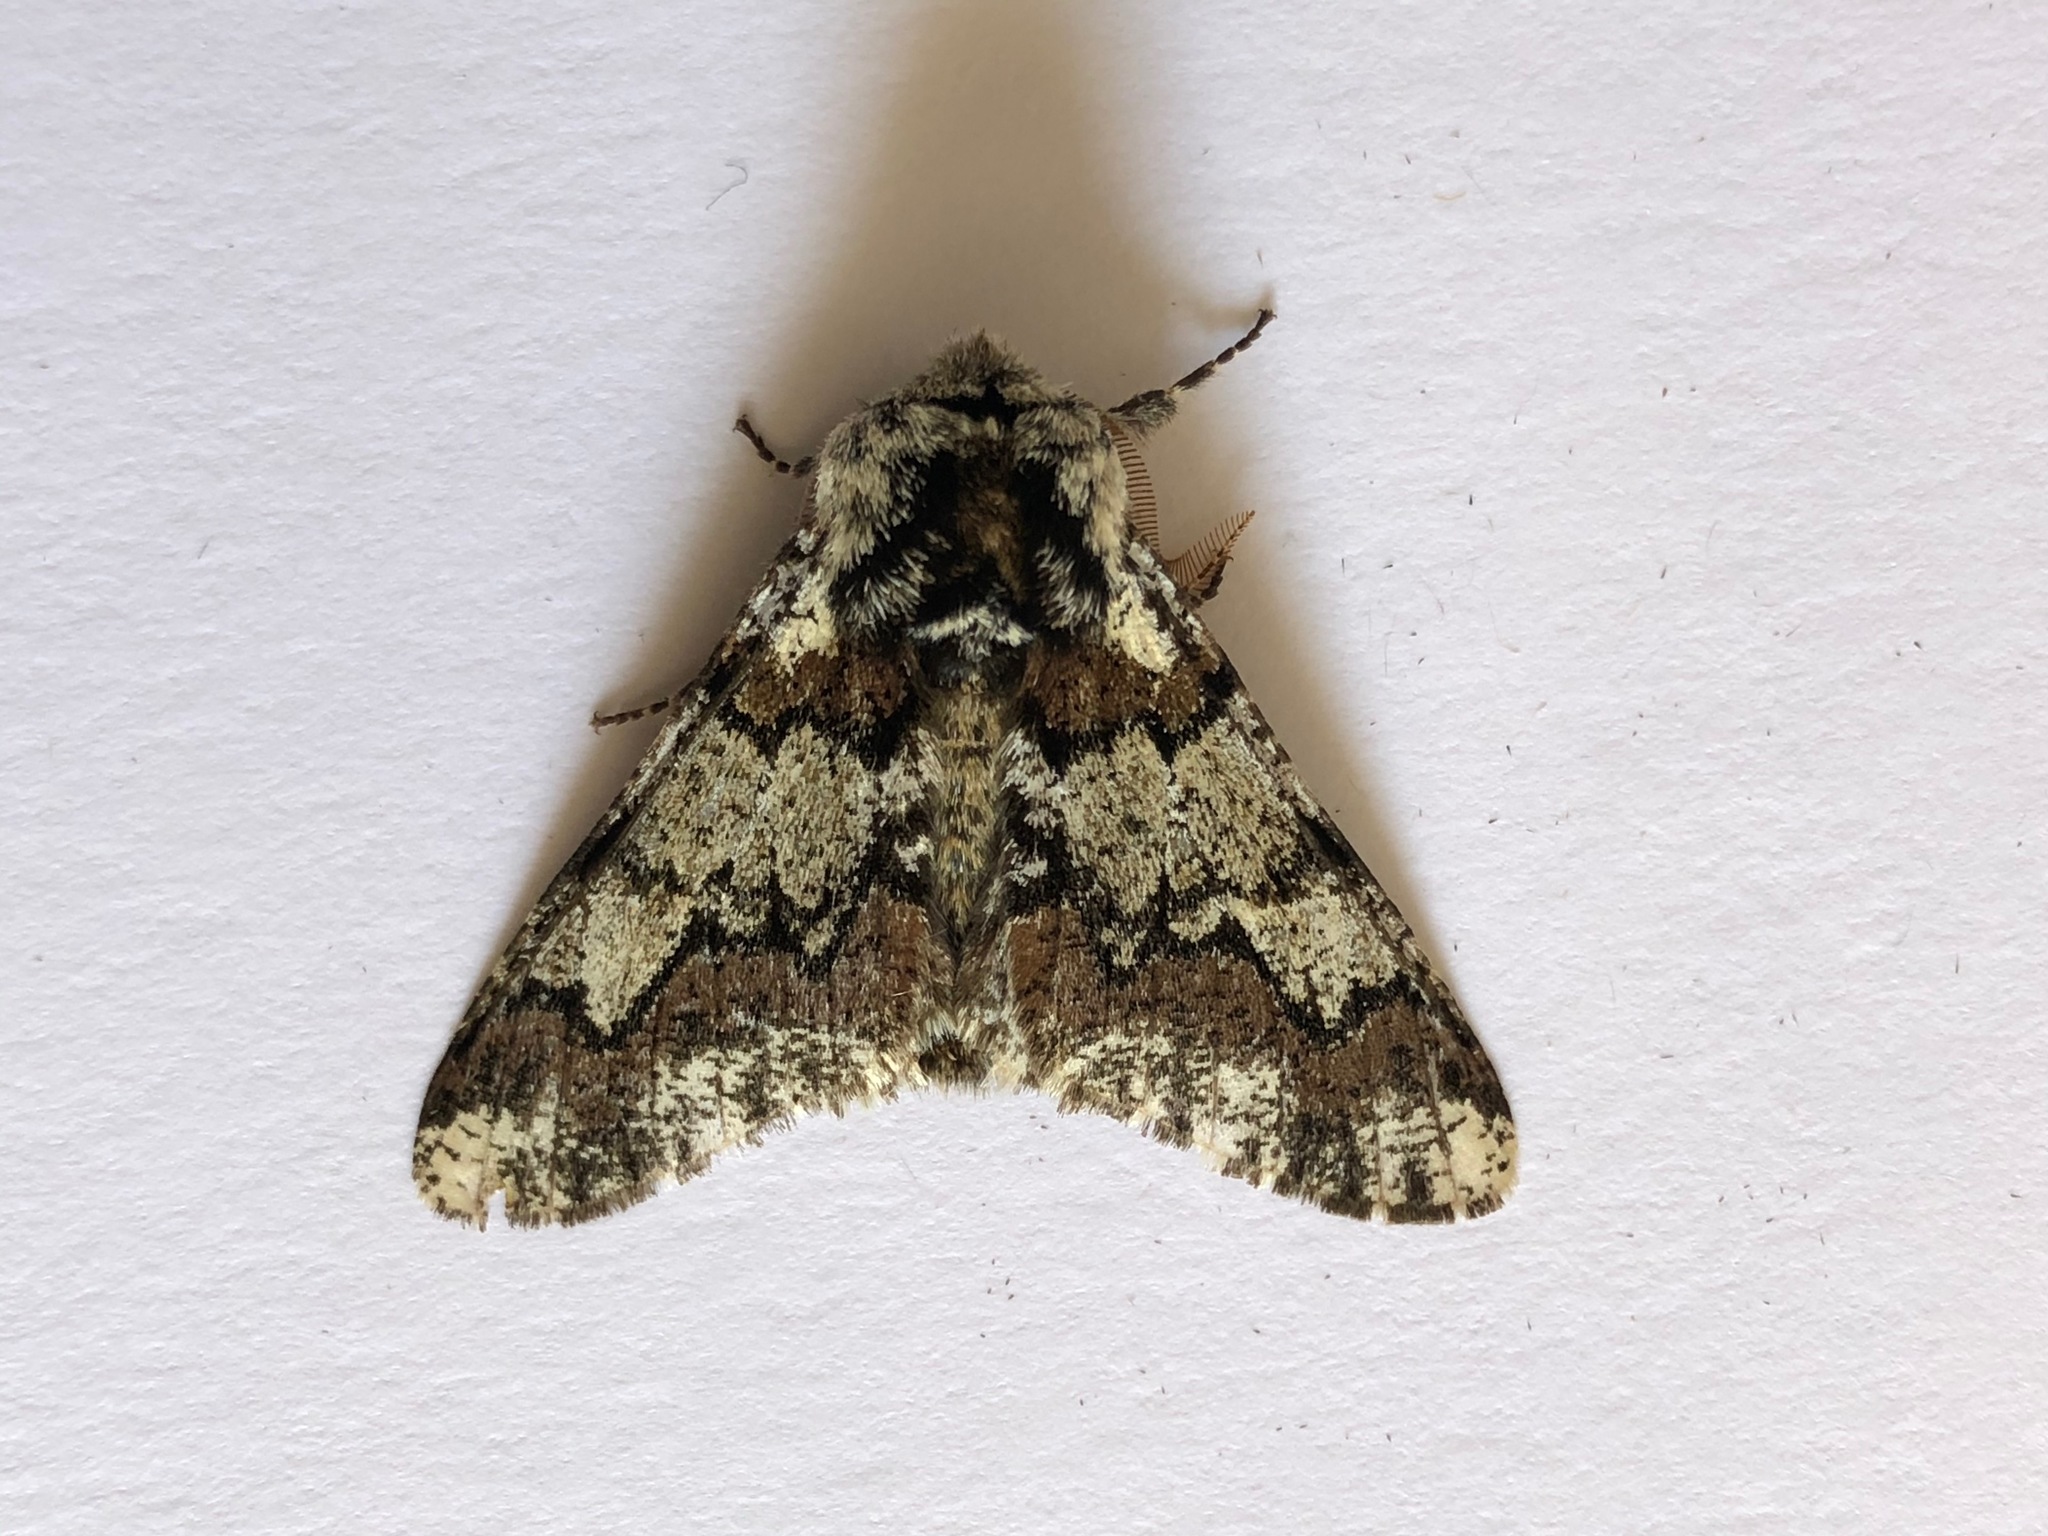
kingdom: Animalia
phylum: Arthropoda
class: Insecta
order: Lepidoptera
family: Geometridae
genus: Biston
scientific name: Biston strataria
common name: Oak beauty
